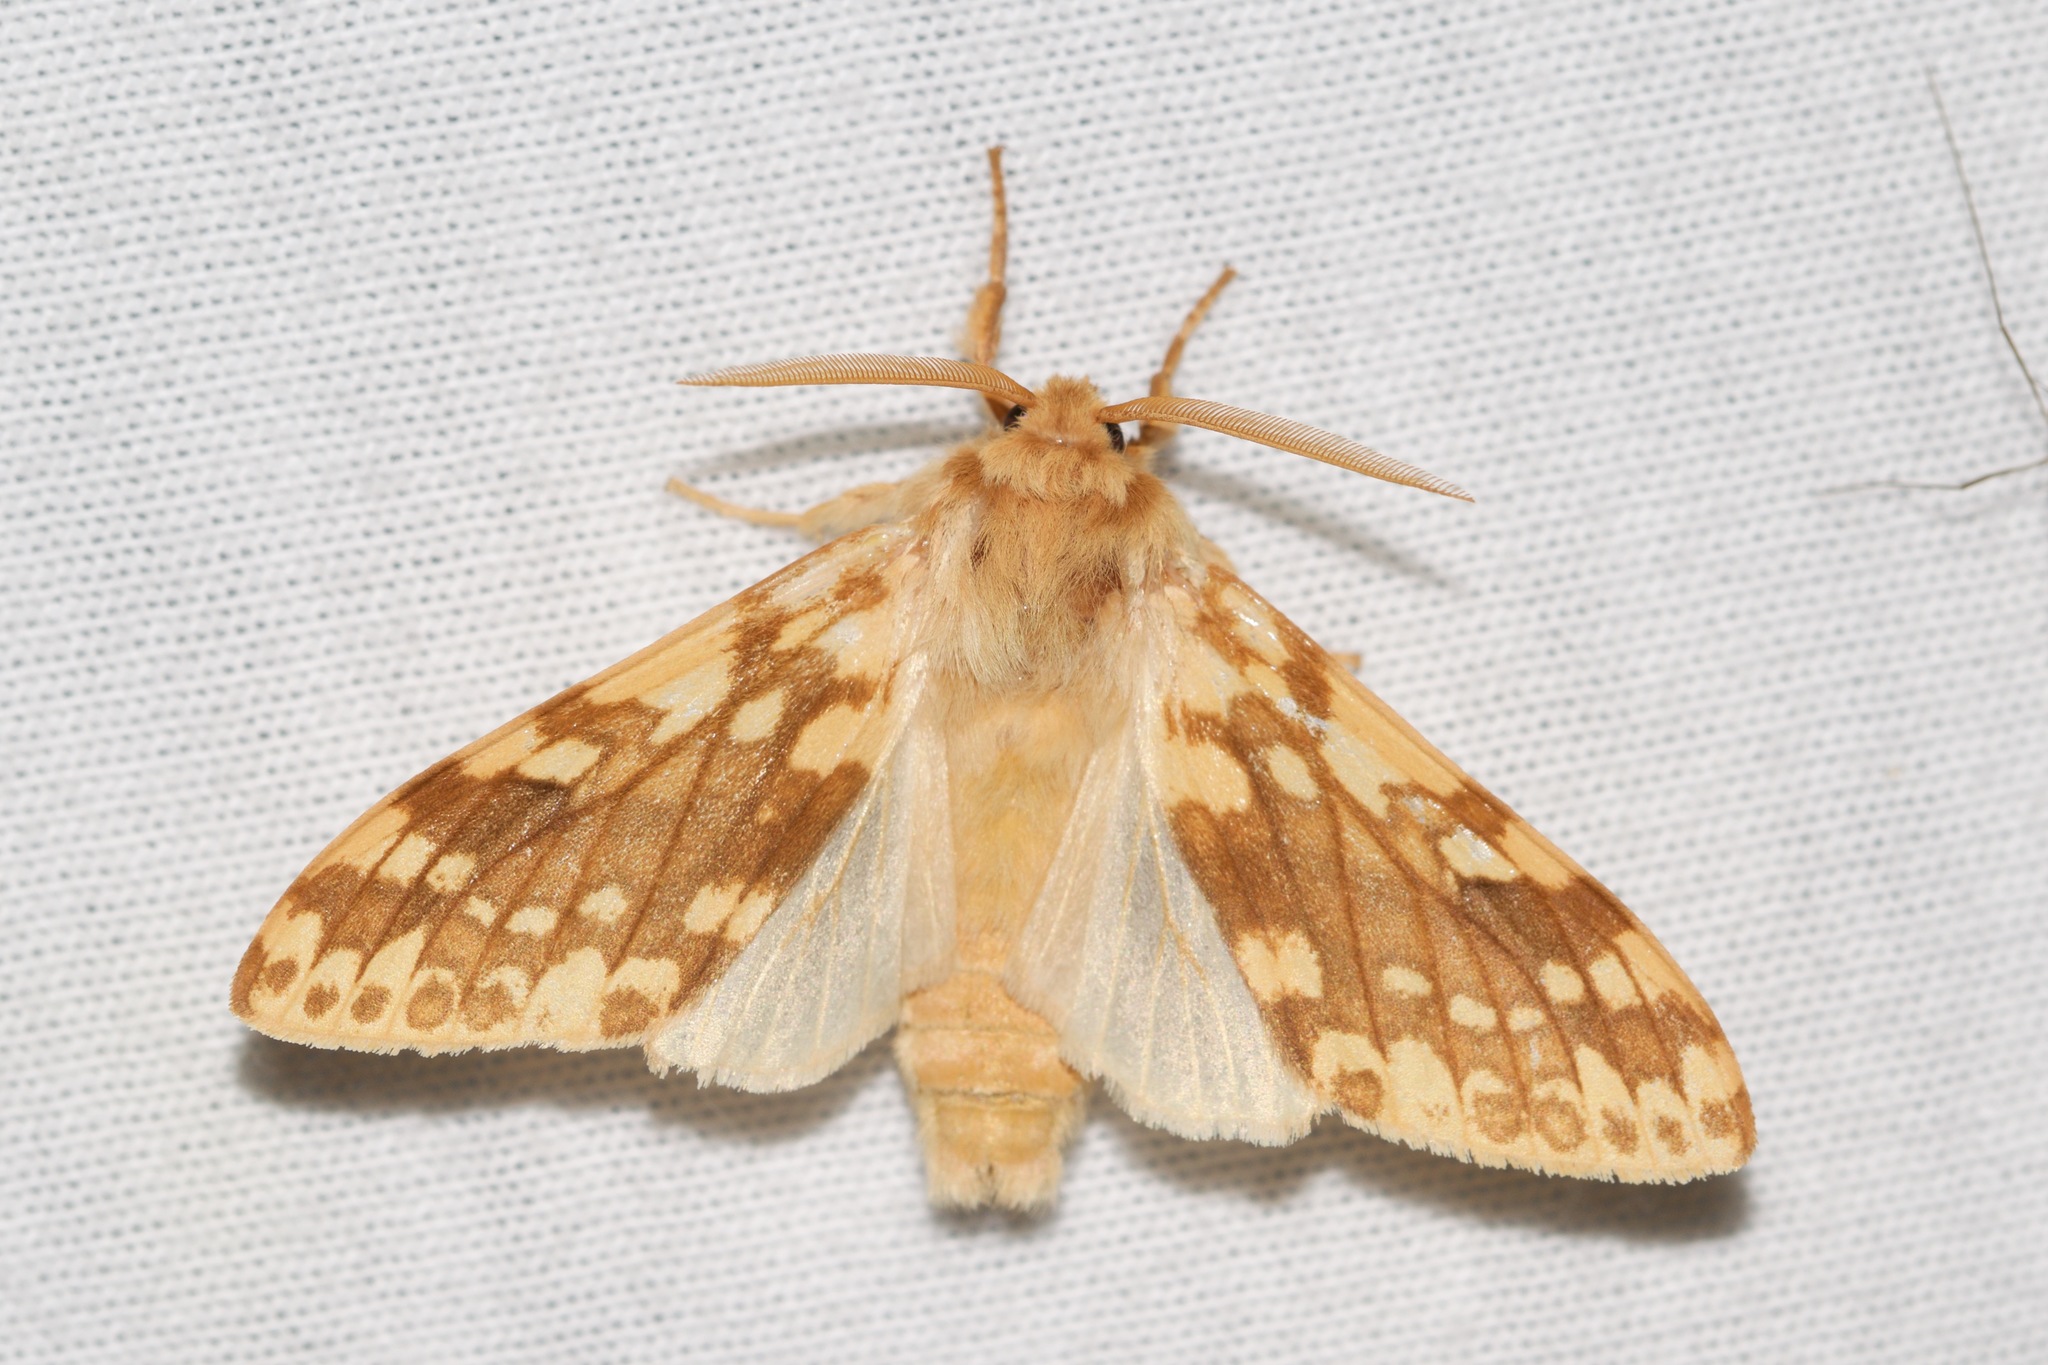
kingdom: Animalia
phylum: Arthropoda
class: Insecta
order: Lepidoptera
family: Erebidae
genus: Lophocampa
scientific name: Lophocampa maculata
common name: Spotted tussock moth
